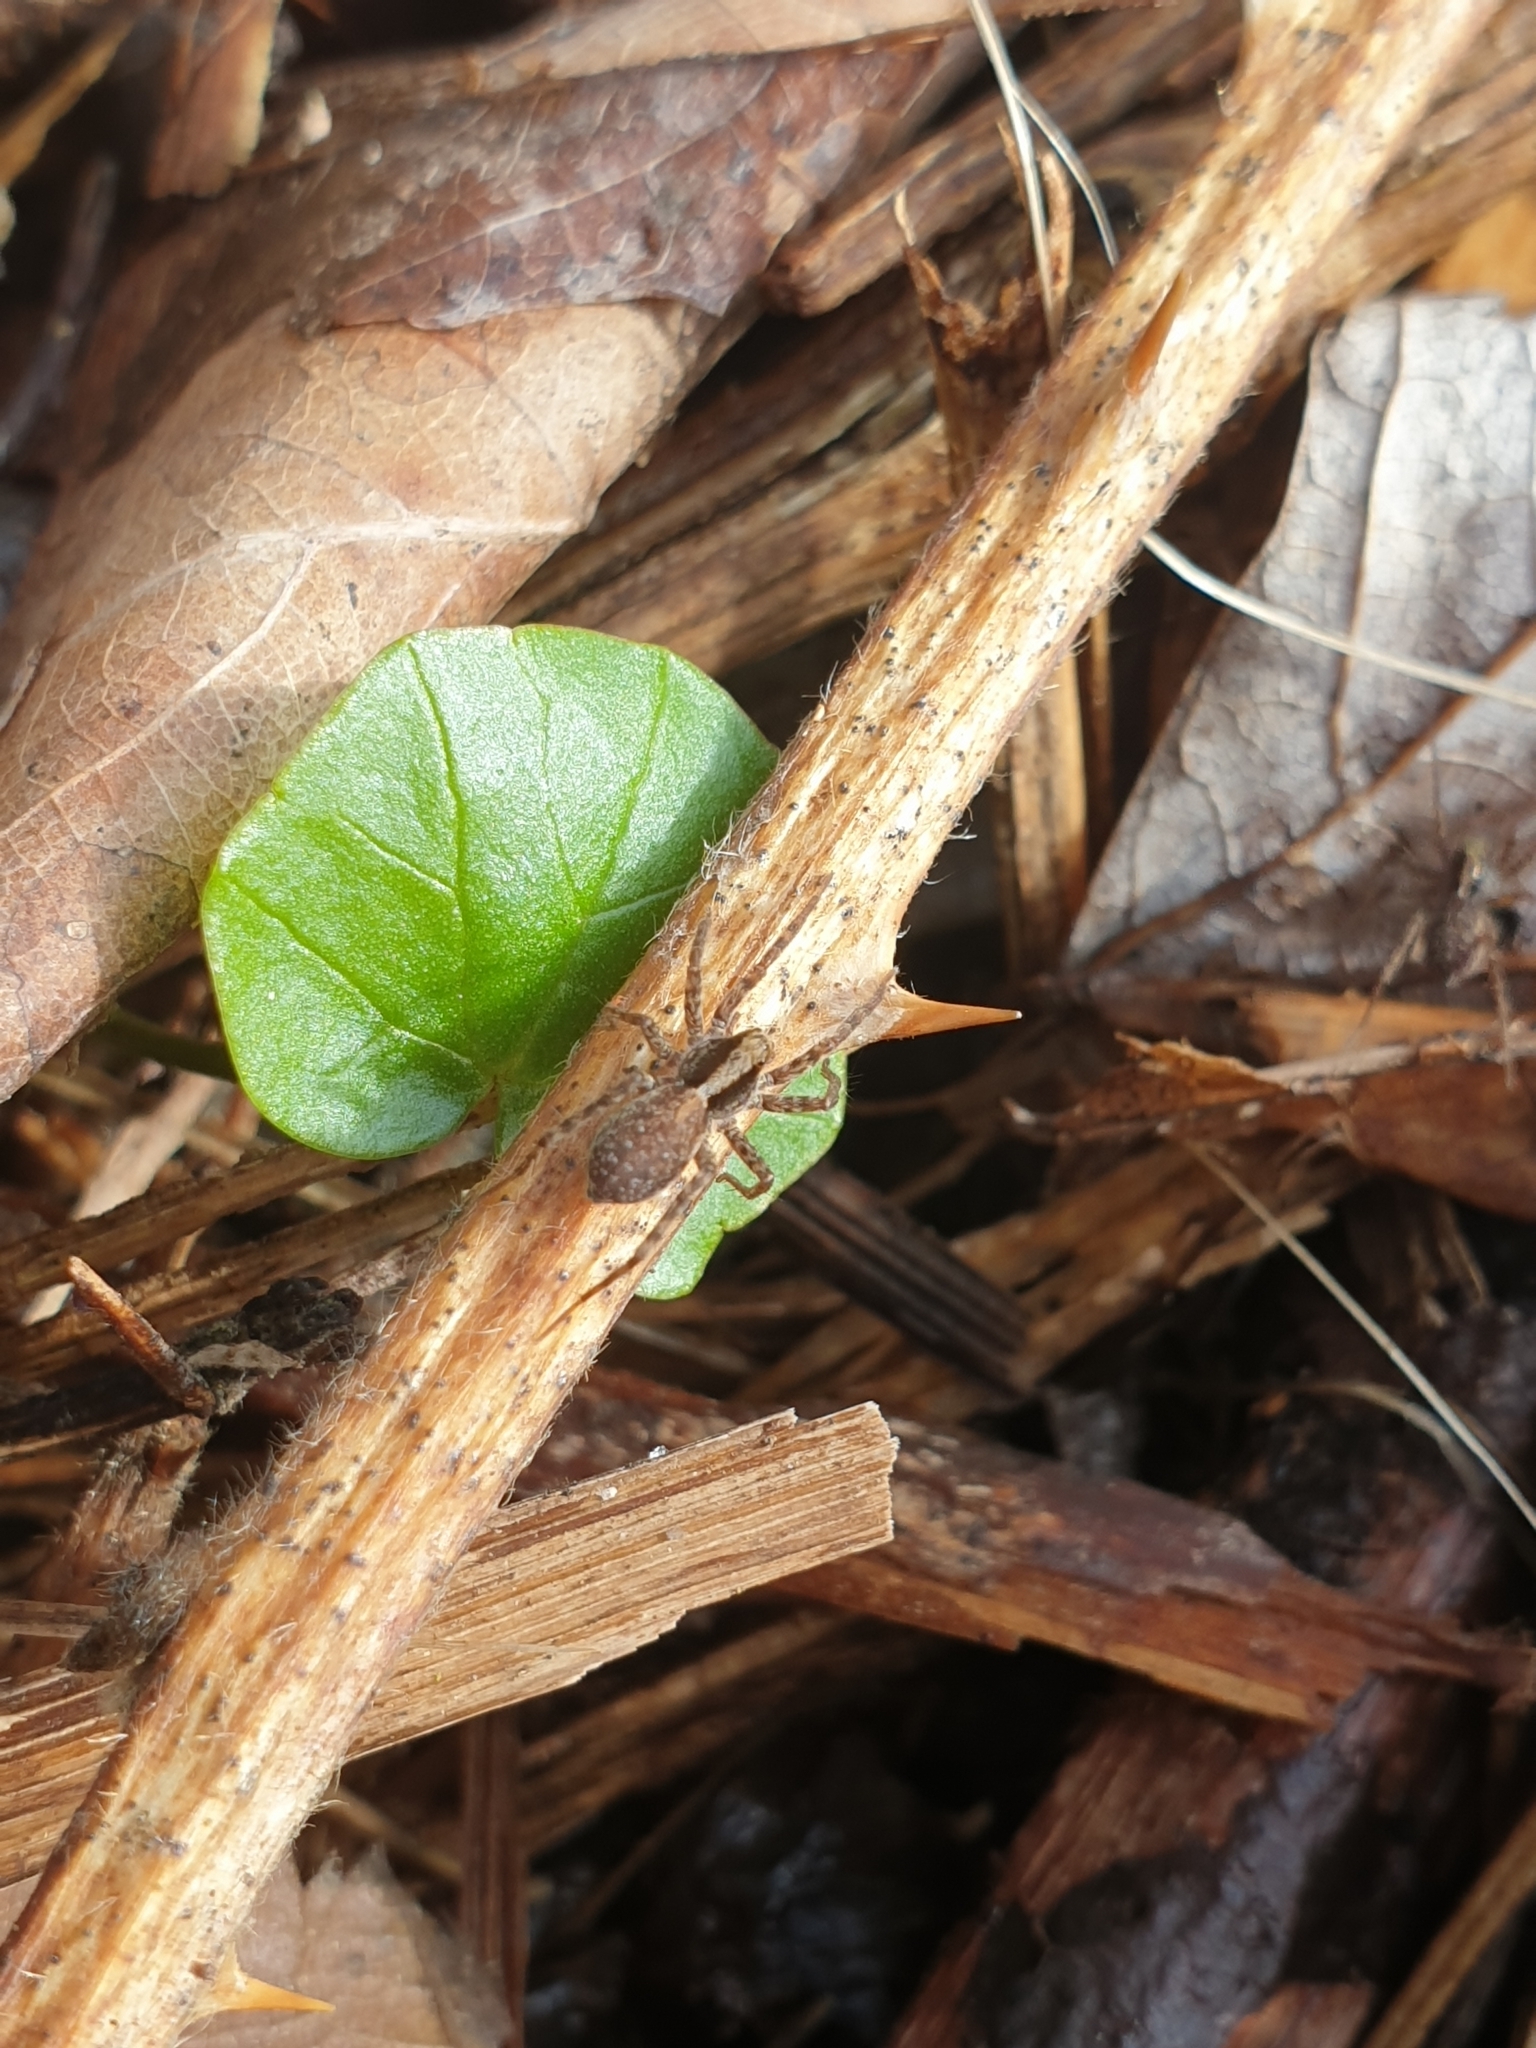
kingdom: Animalia
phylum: Arthropoda
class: Arachnida
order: Araneae
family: Lycosidae
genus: Pardosa
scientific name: Pardosa
